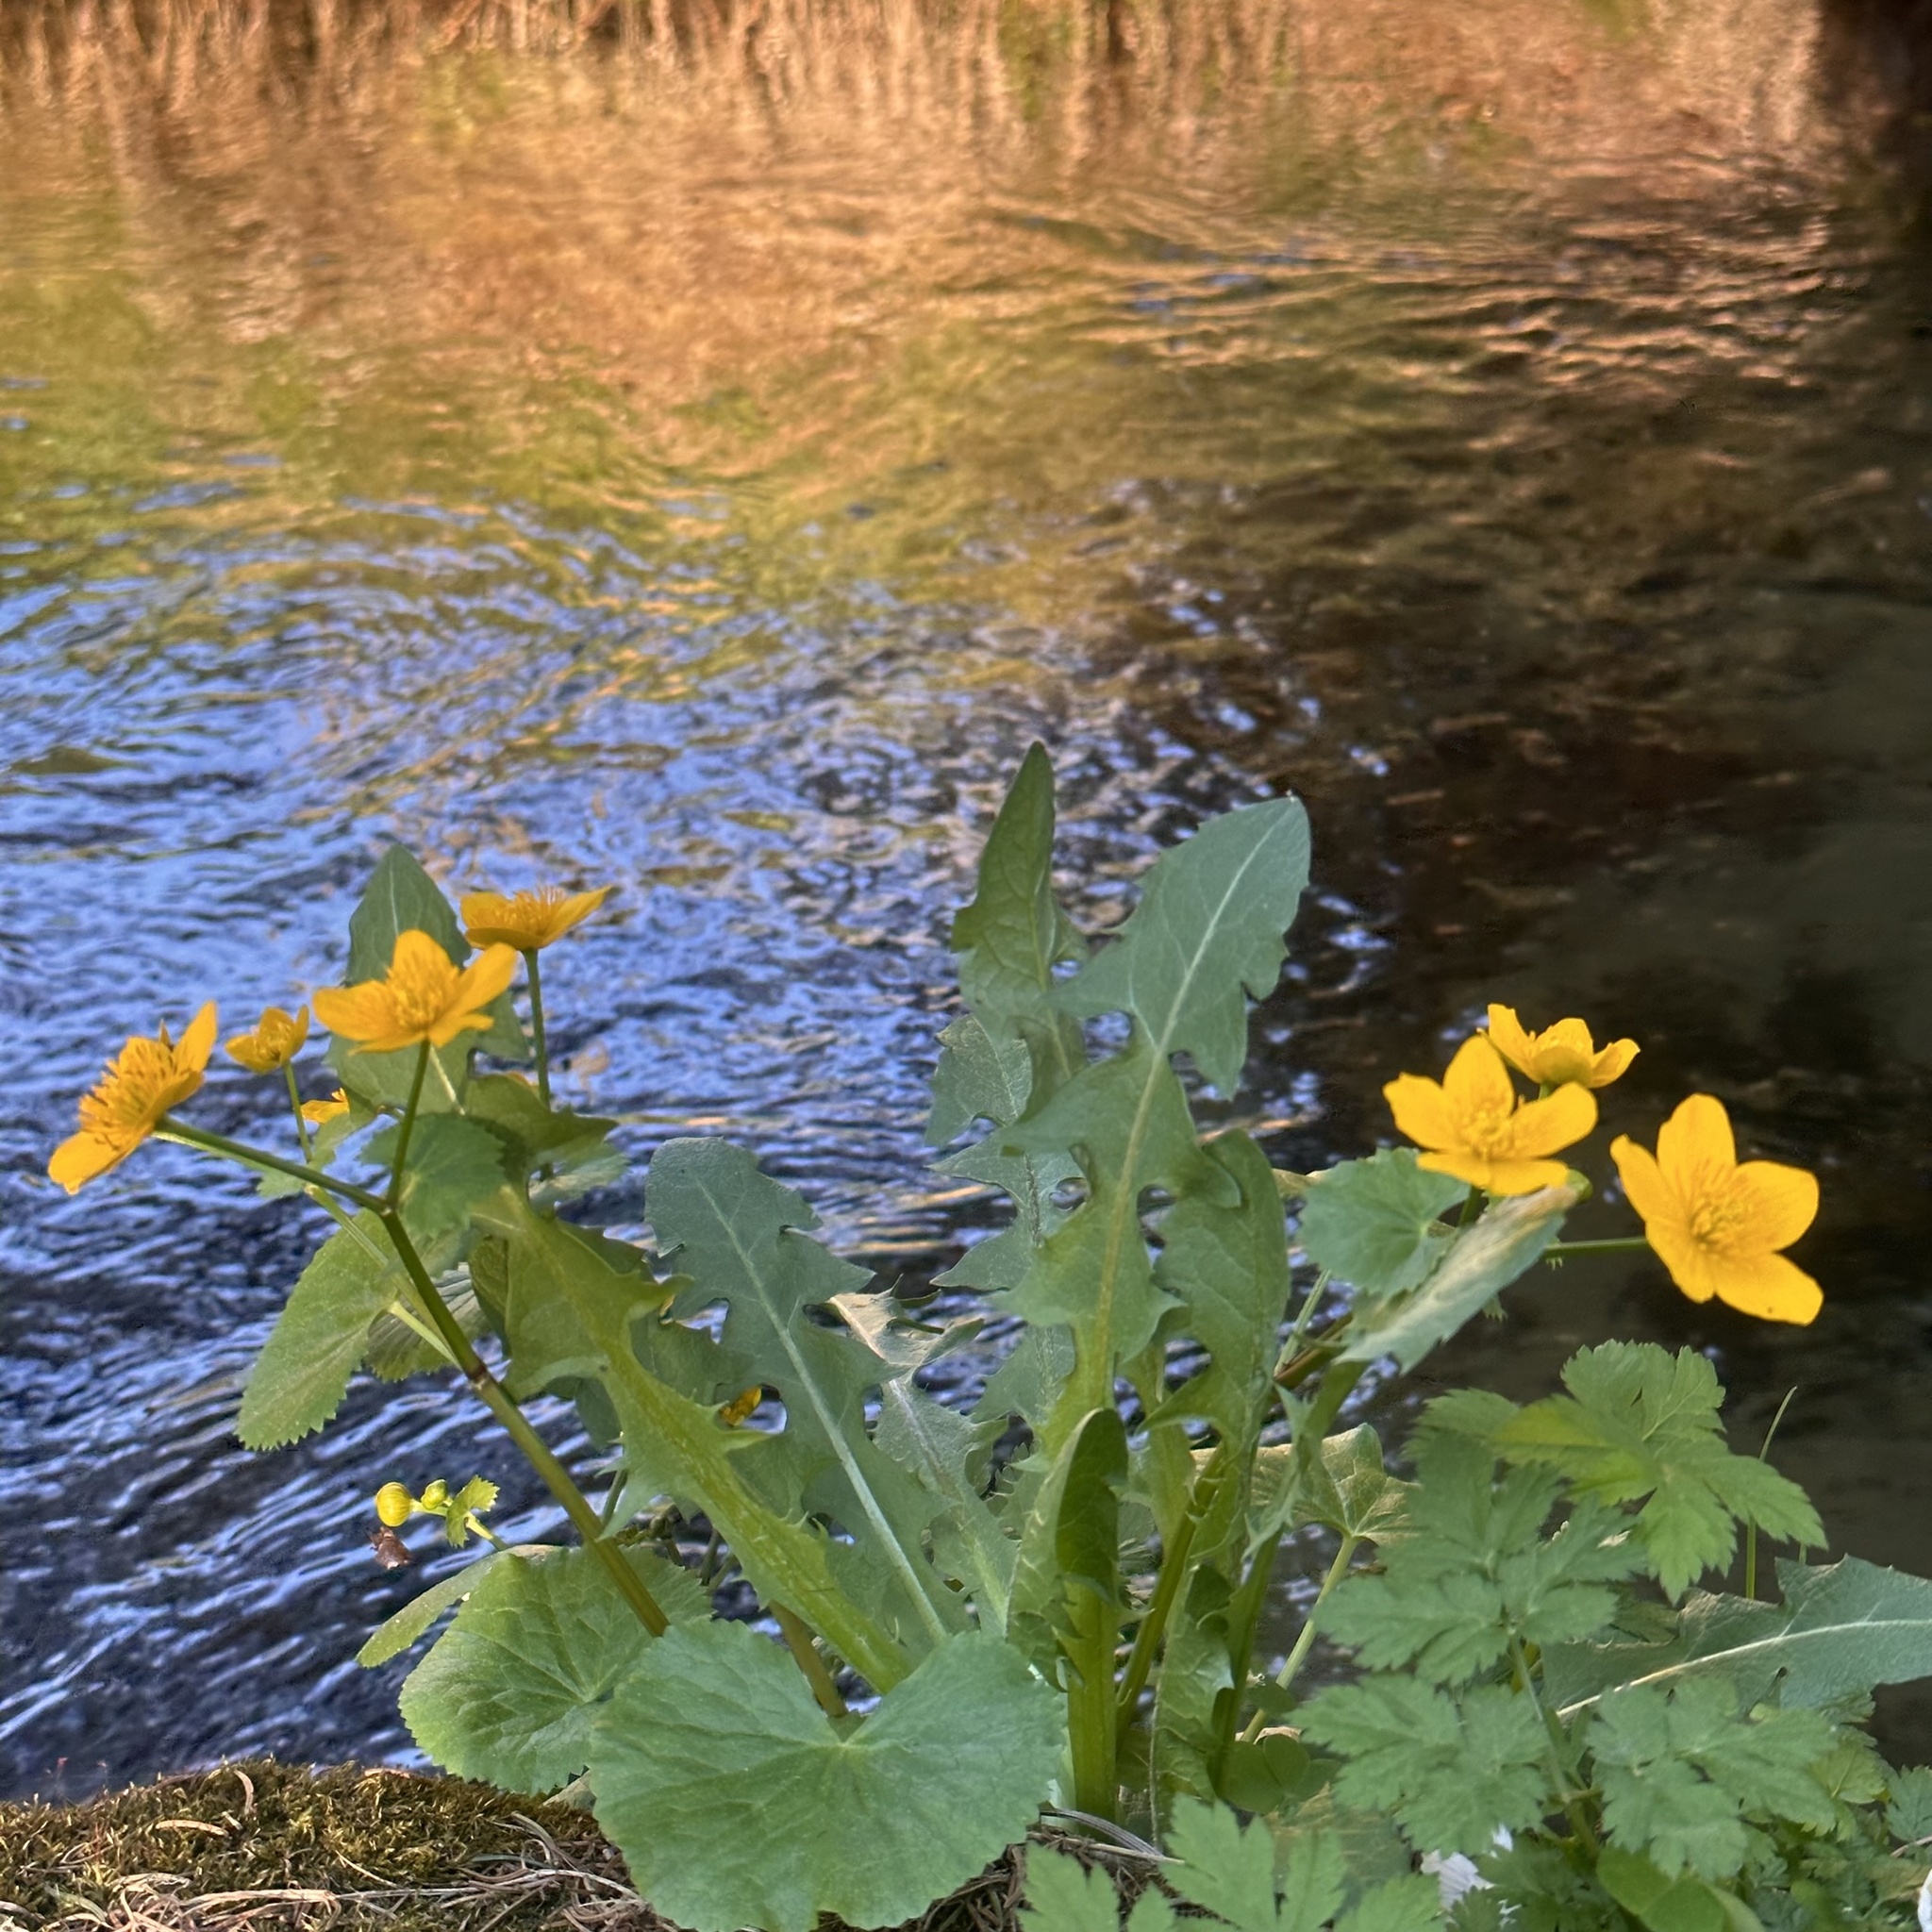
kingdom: Plantae
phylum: Tracheophyta
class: Magnoliopsida
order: Ranunculales
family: Ranunculaceae
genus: Caltha
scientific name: Caltha palustris
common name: Marsh marigold
